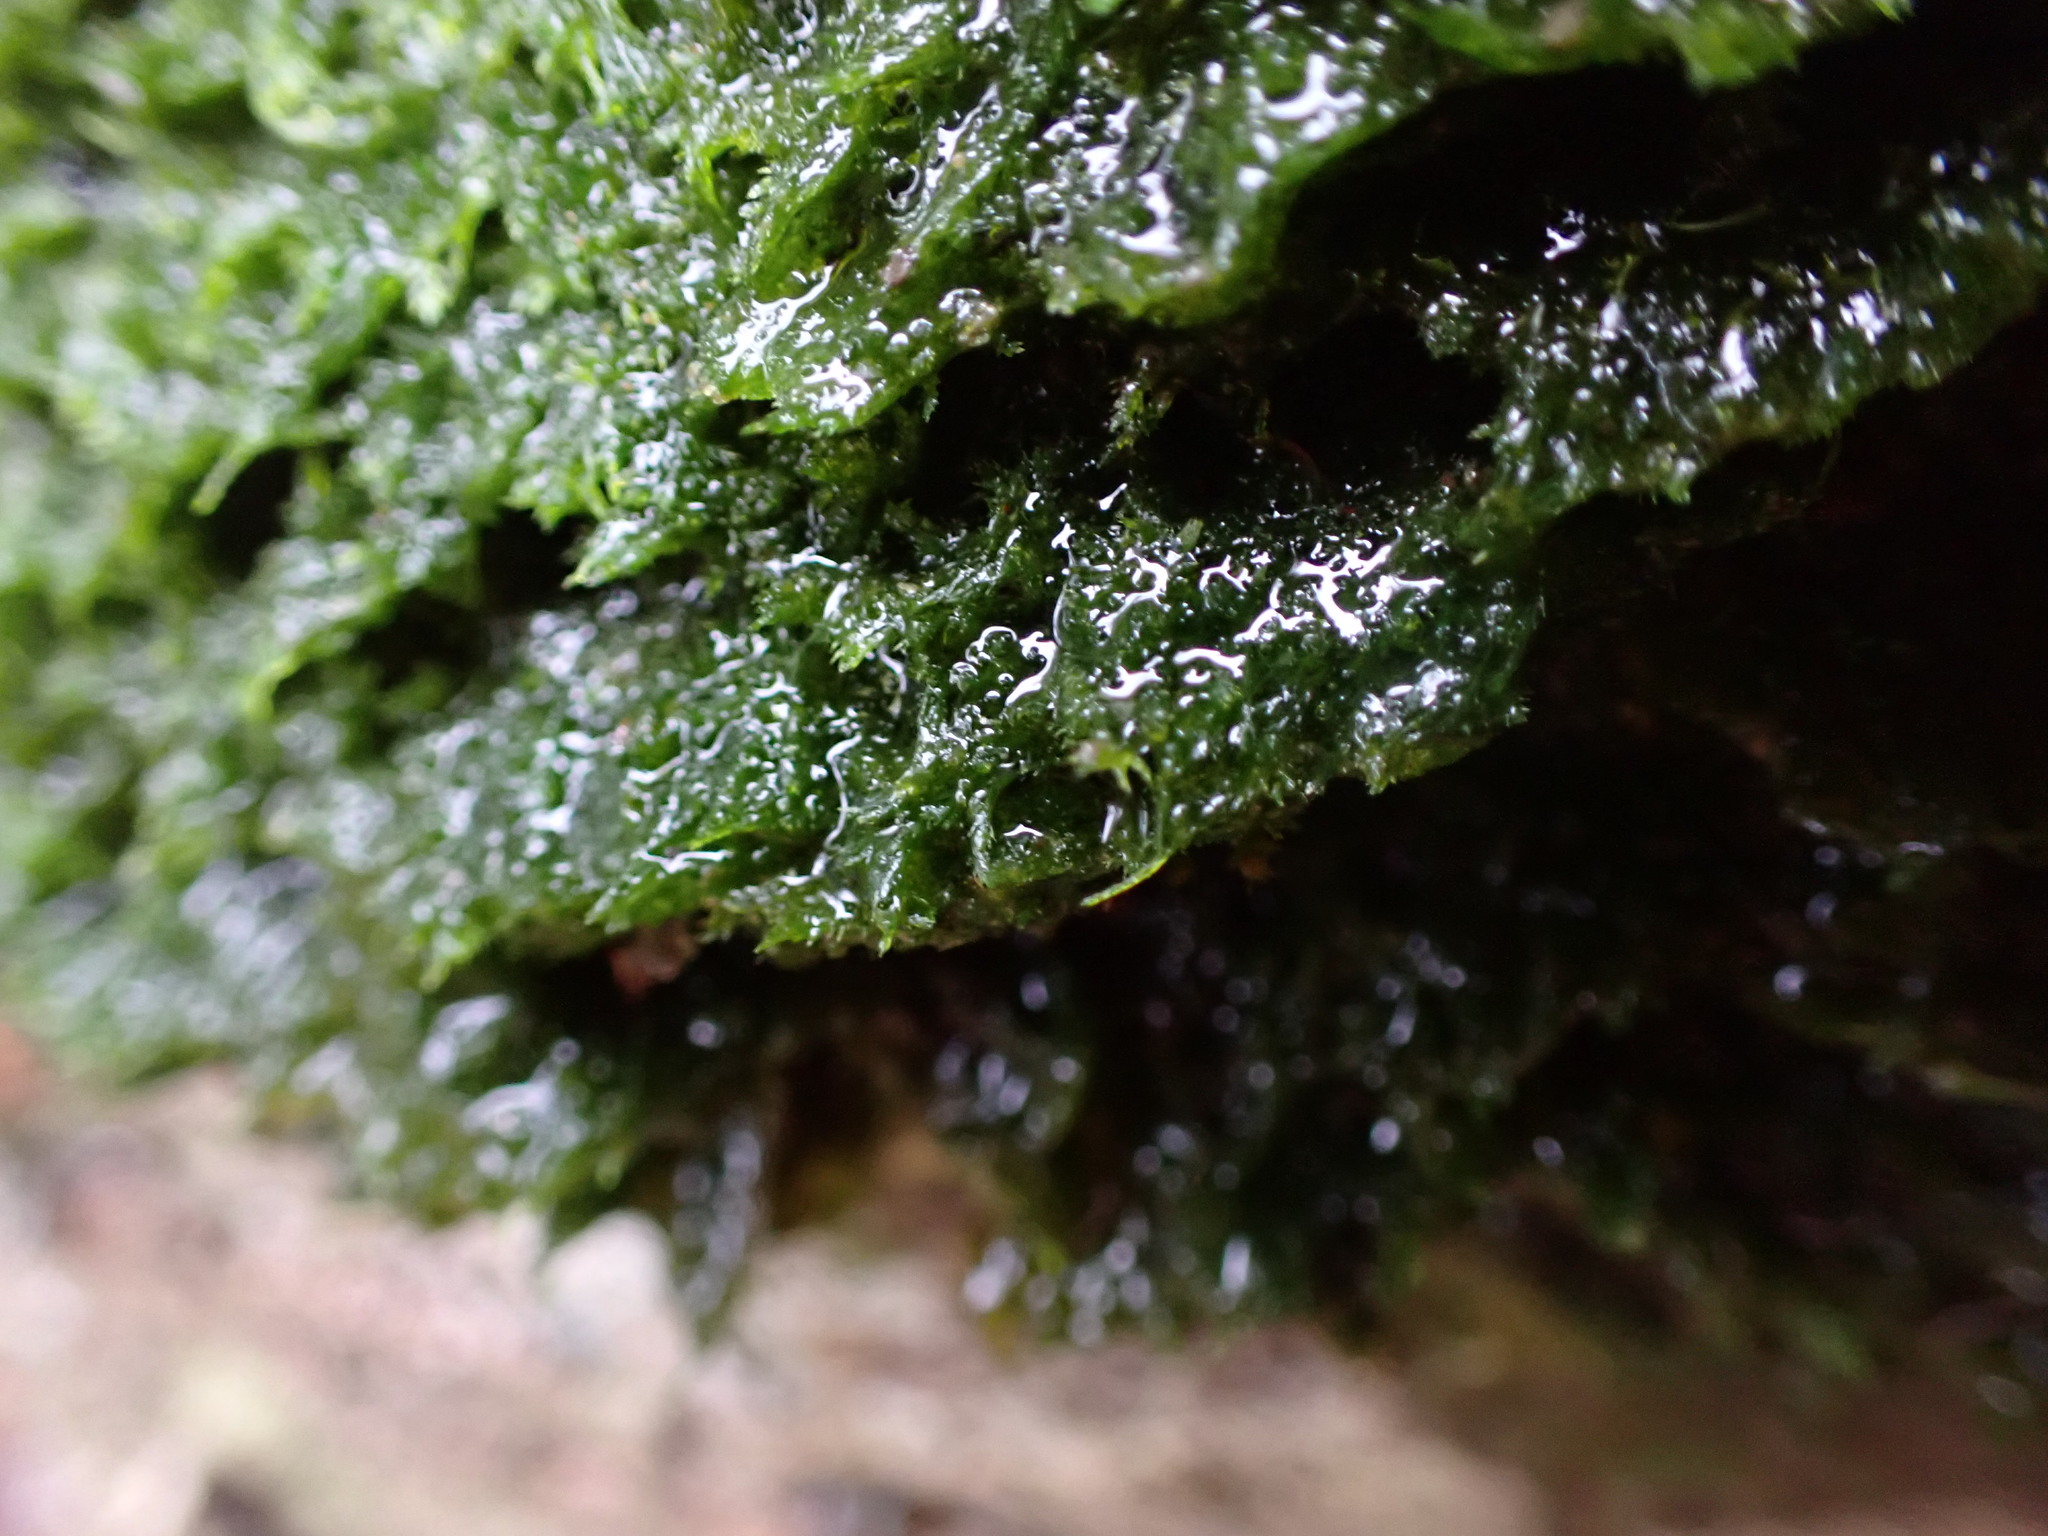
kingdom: Plantae
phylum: Bryophyta
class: Bryopsida
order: Hypnales
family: Pylaisiadelphaceae
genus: Brotherella
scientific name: Brotherella fauriei
